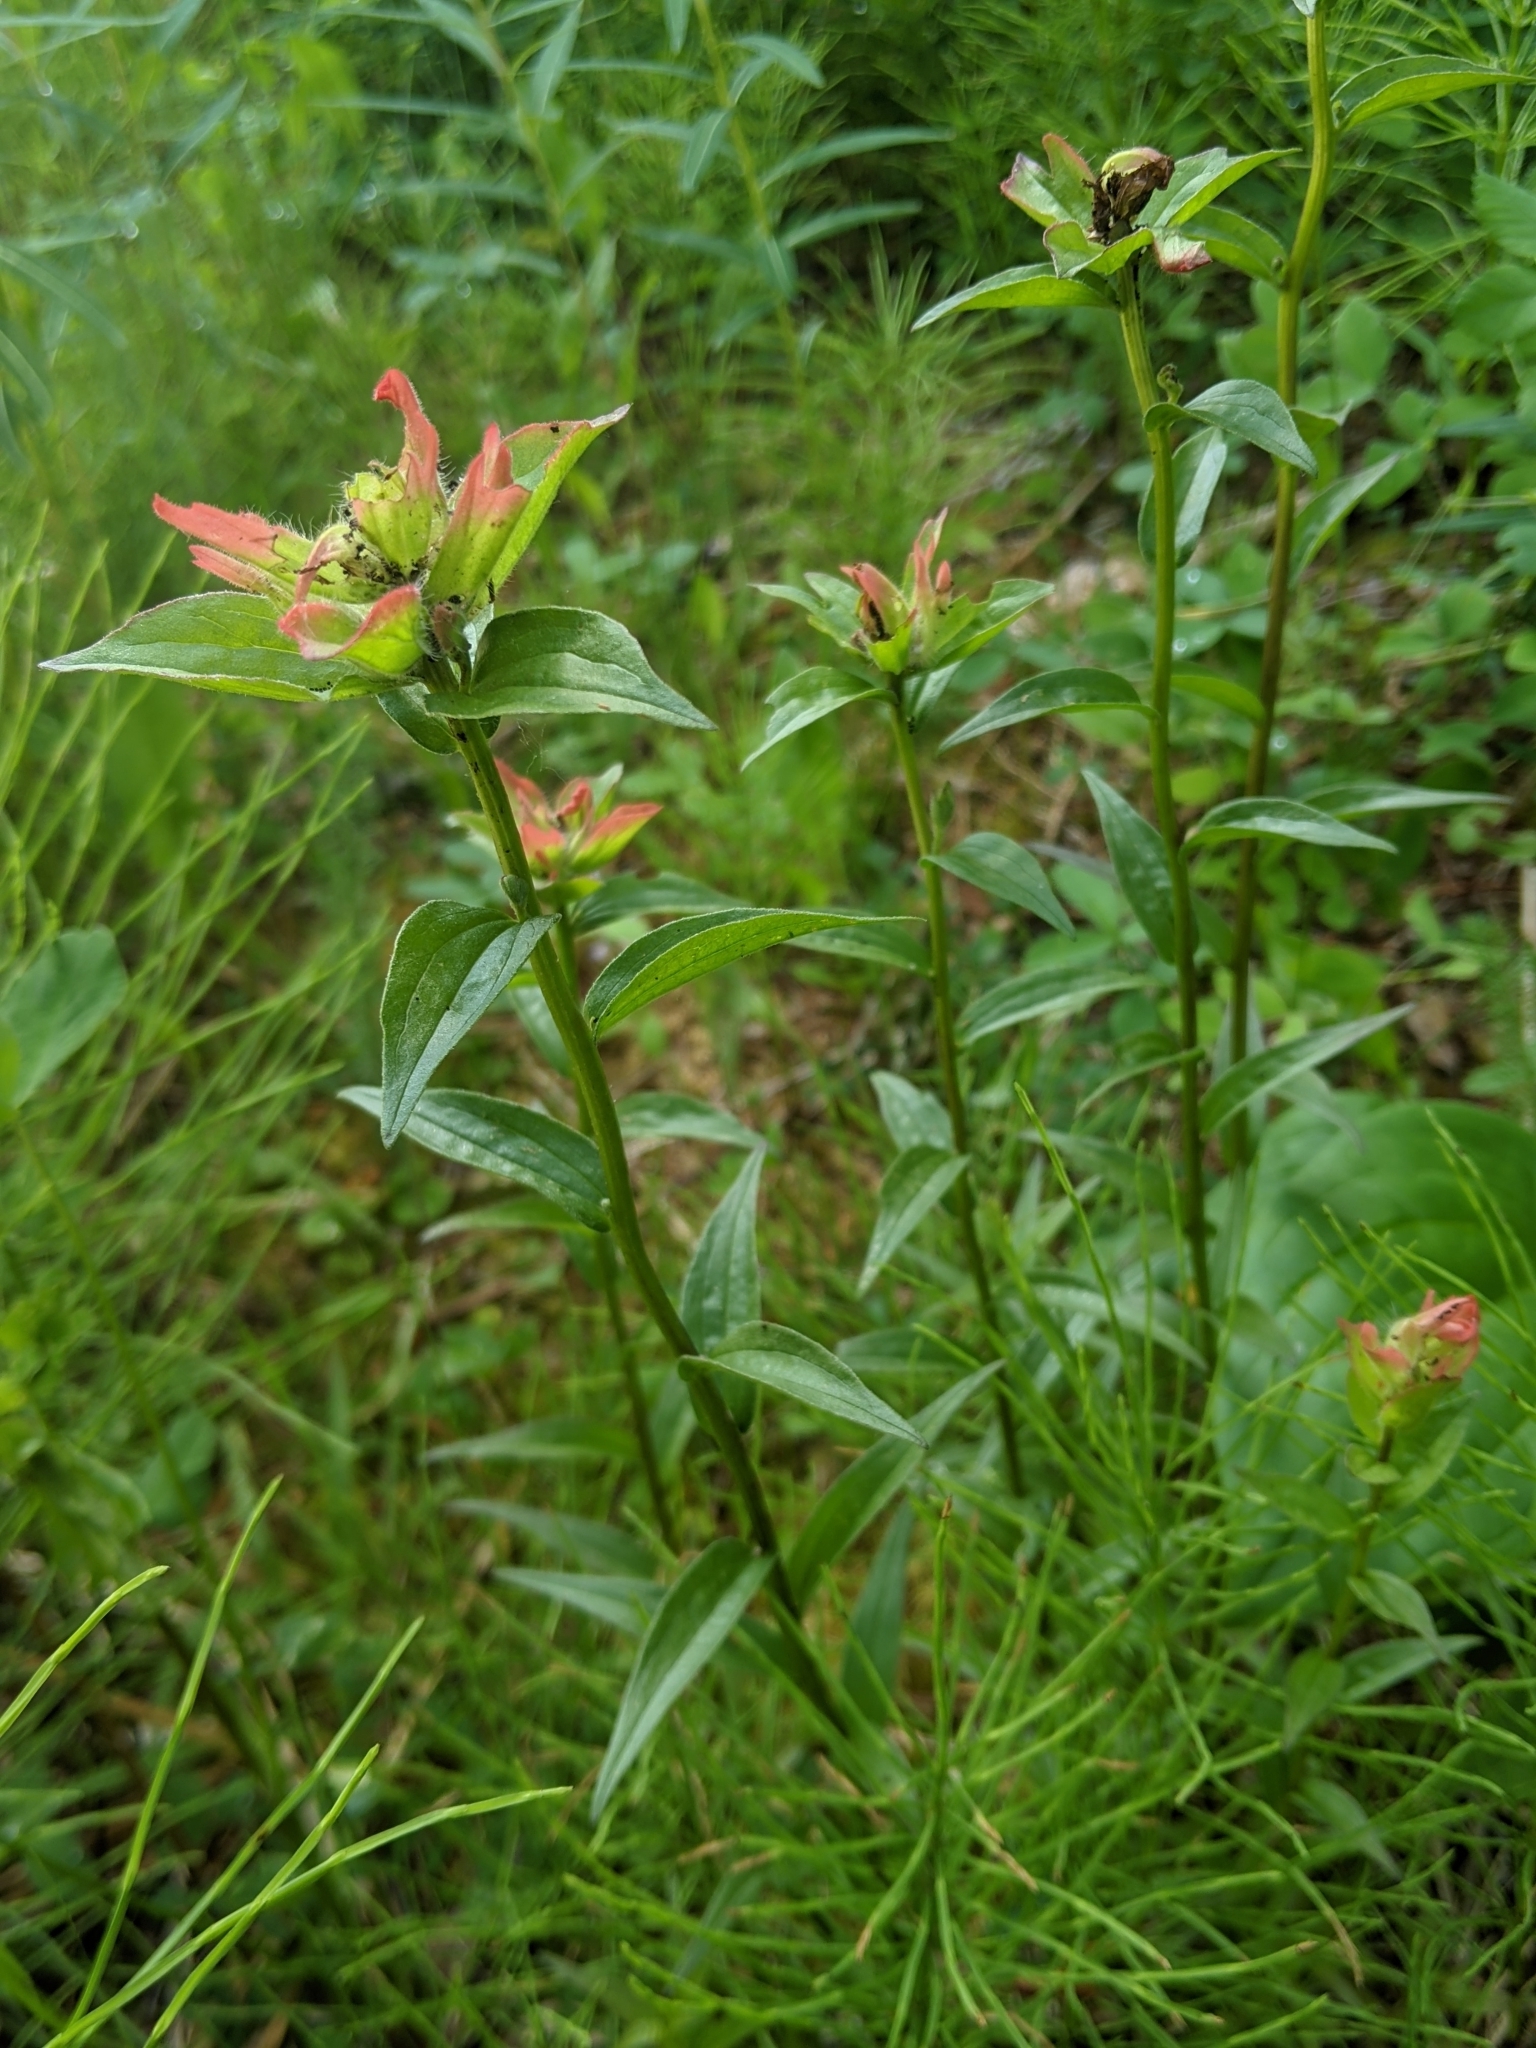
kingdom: Plantae
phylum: Tracheophyta
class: Magnoliopsida
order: Lamiales
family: Orobanchaceae
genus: Castilleja
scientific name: Castilleja miniata
